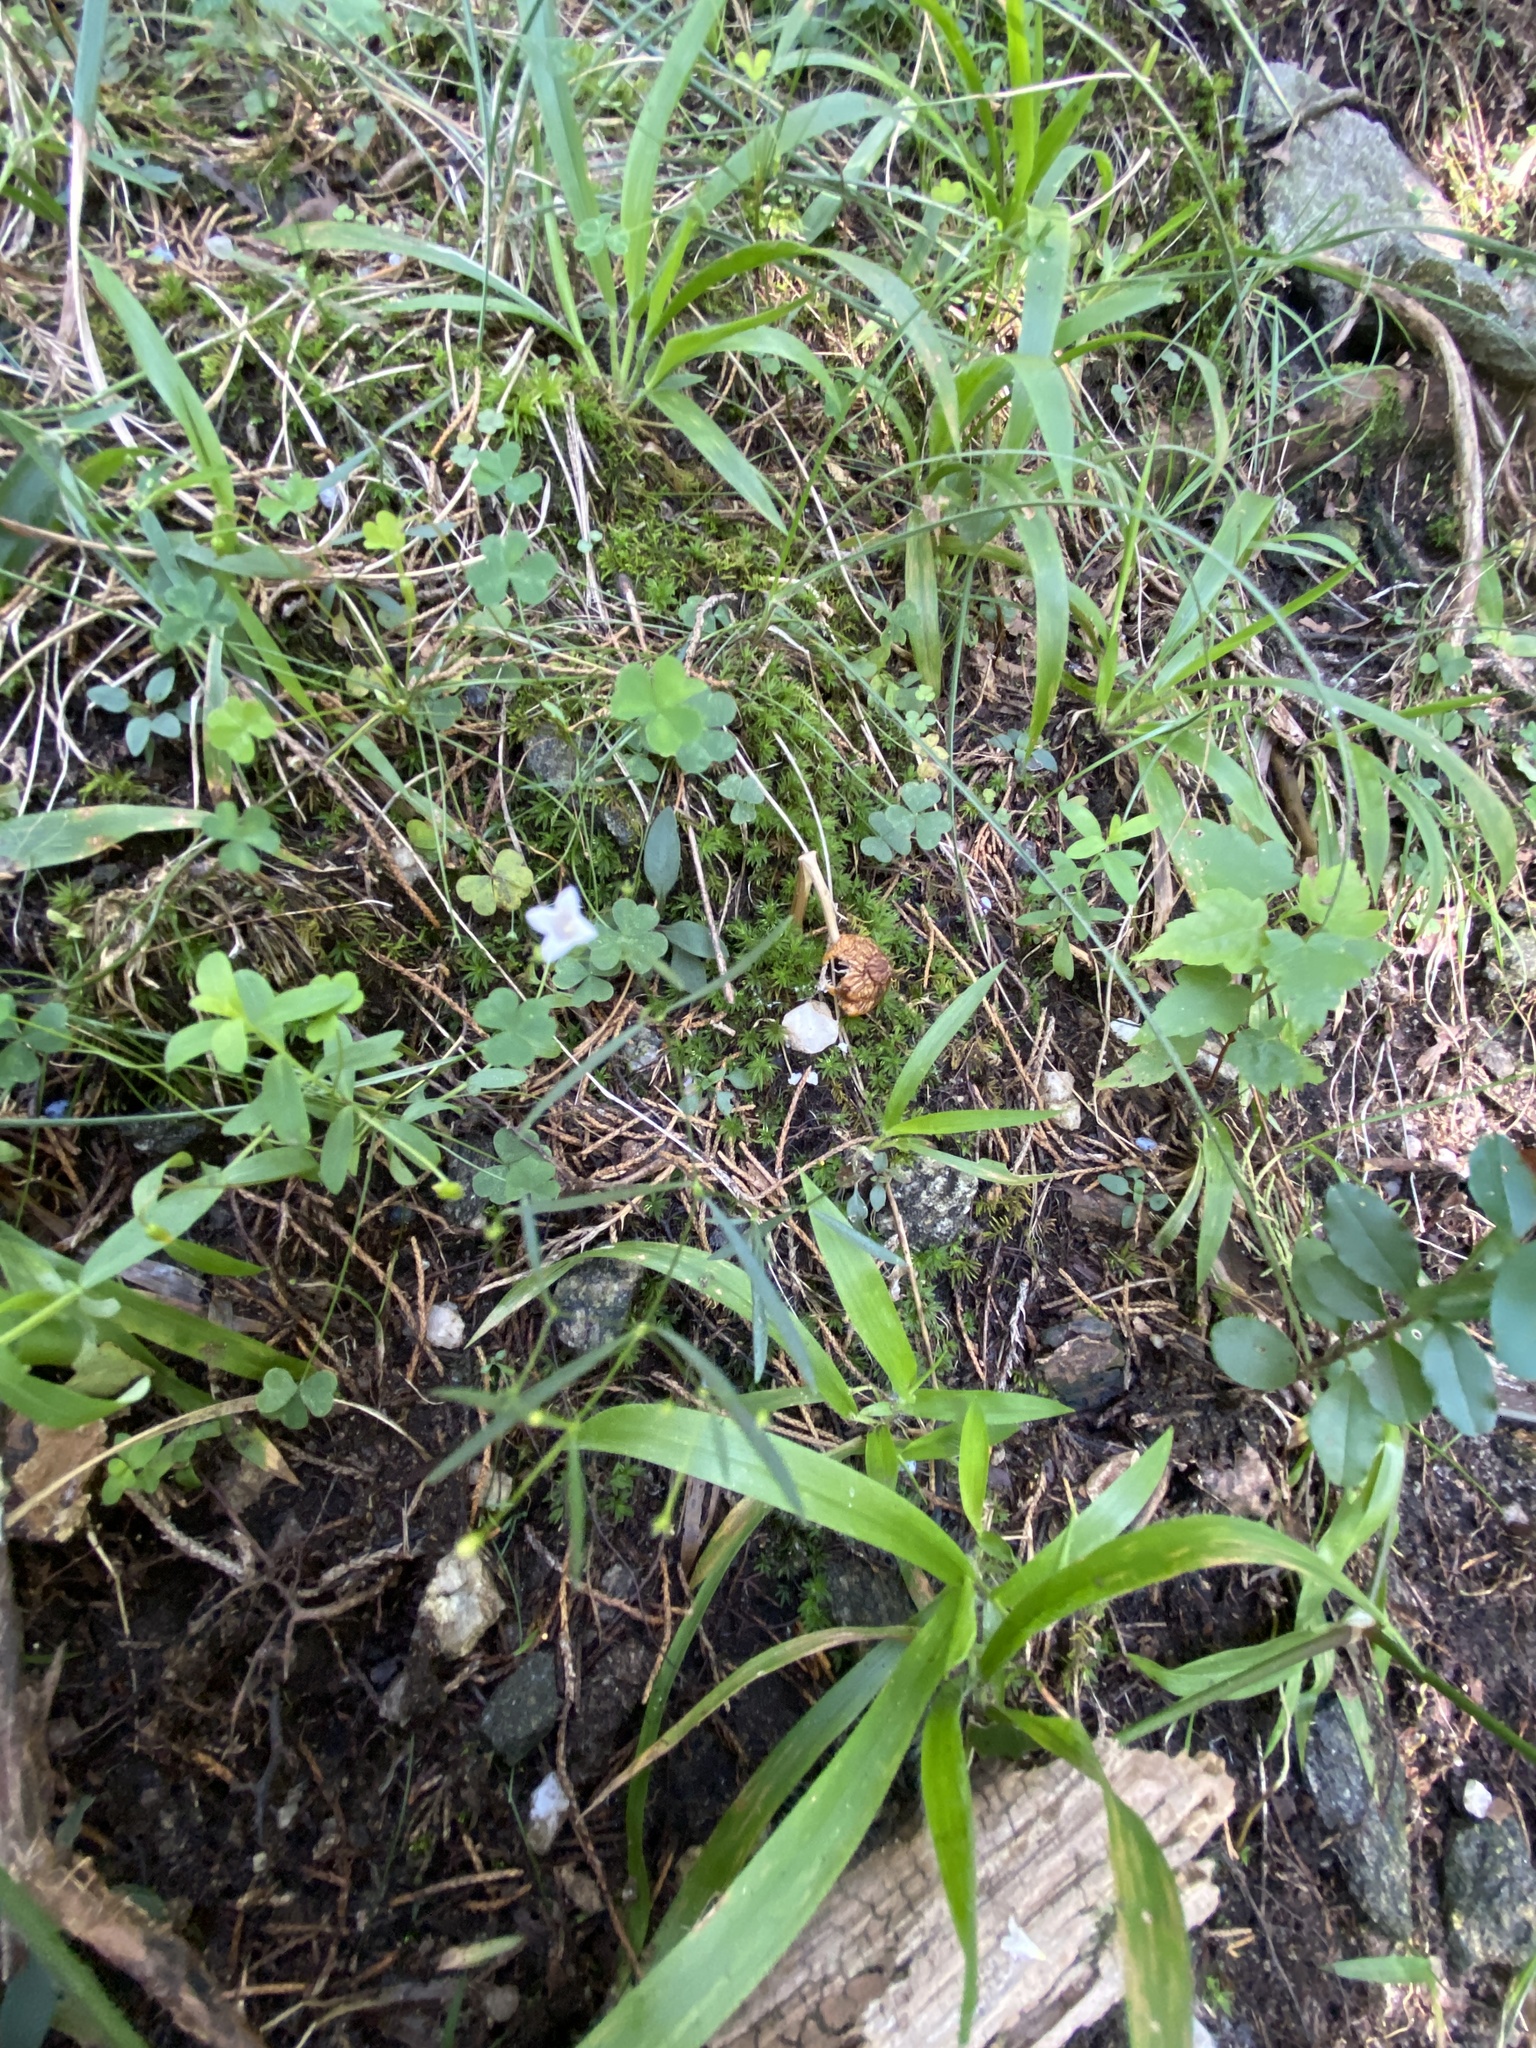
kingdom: Plantae
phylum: Tracheophyta
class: Magnoliopsida
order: Gentianales
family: Rubiaceae
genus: Houstonia
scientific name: Houstonia longifolia
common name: Long-leaved bluets
